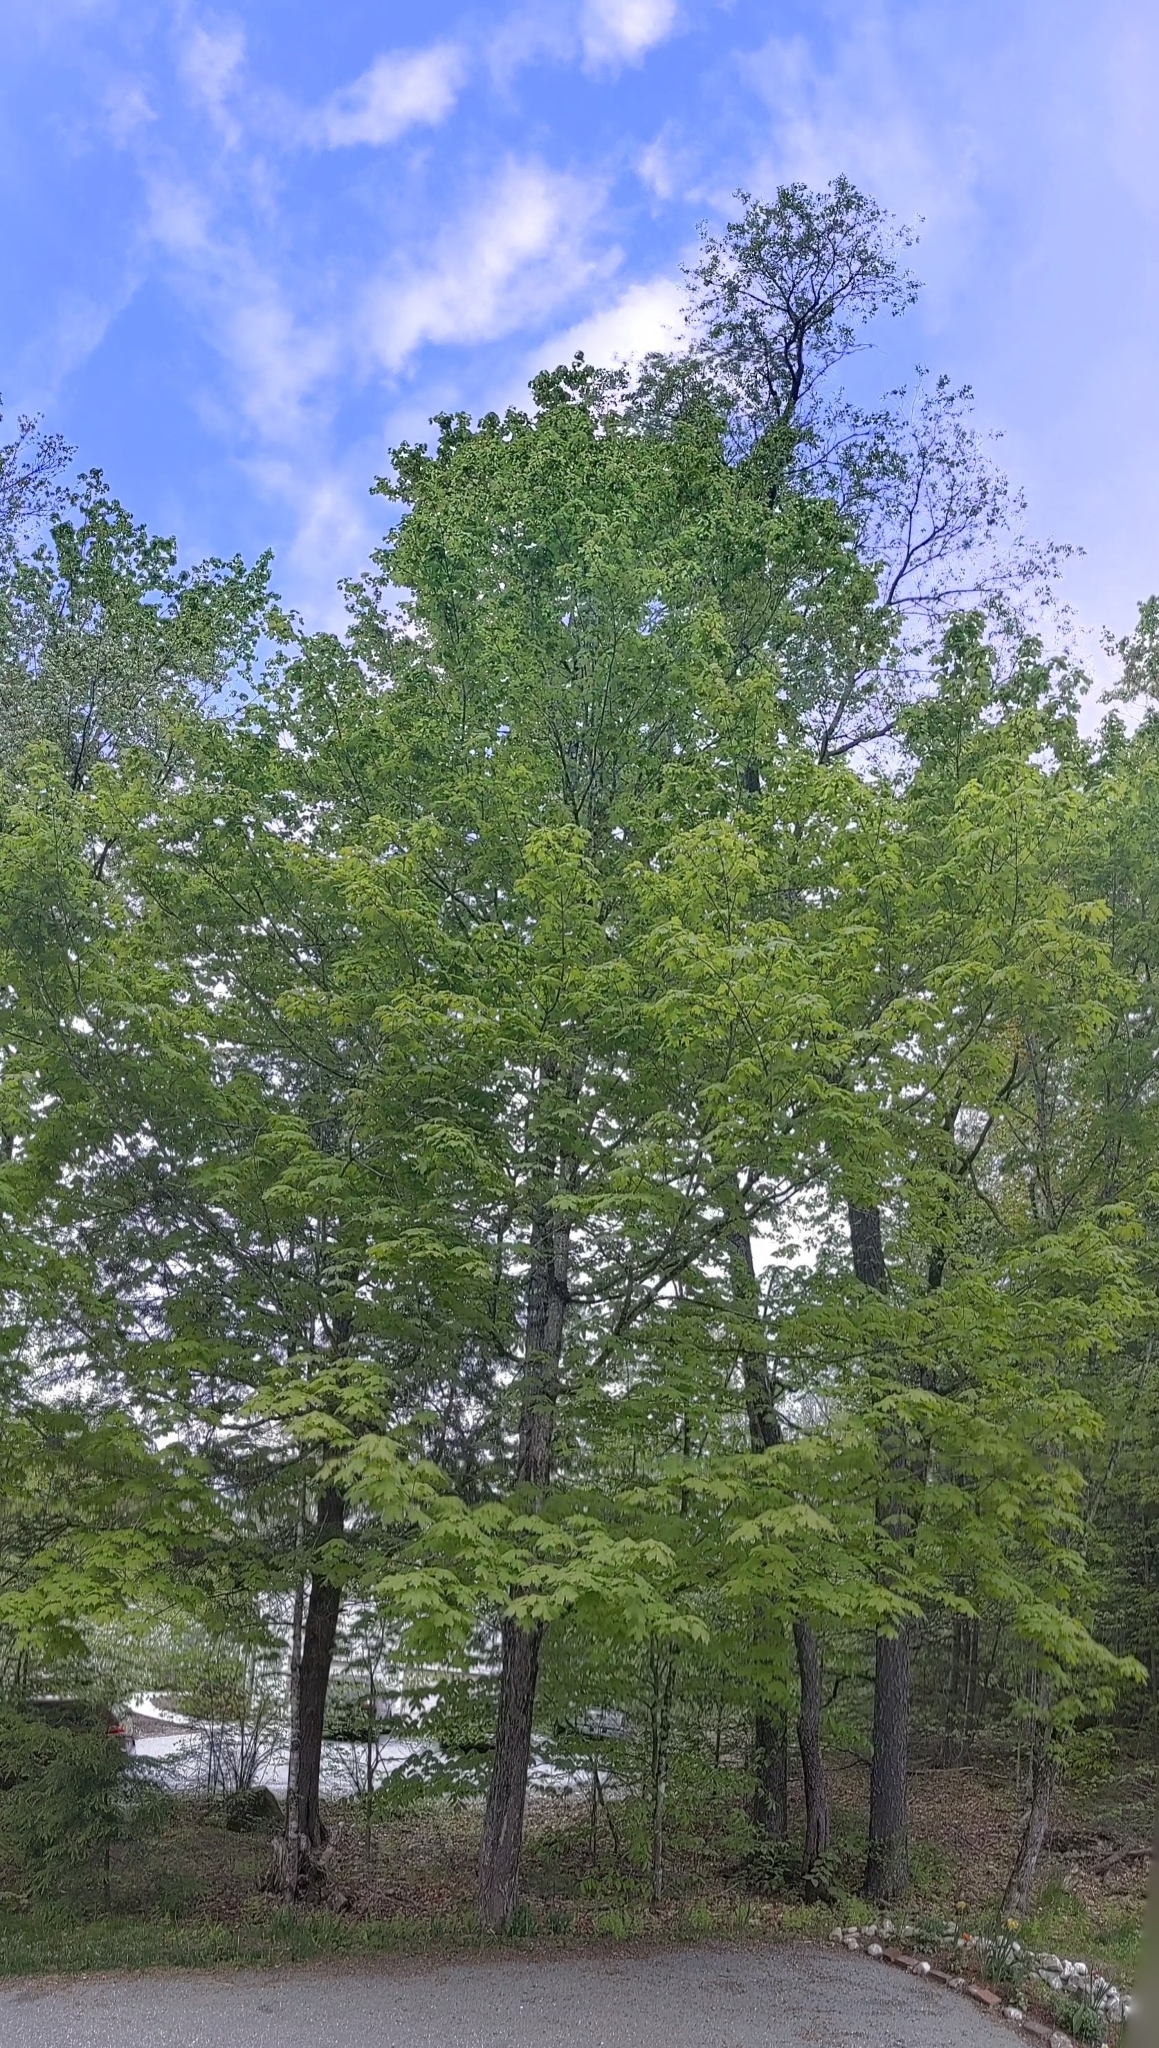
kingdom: Plantae
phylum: Tracheophyta
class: Magnoliopsida
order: Sapindales
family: Sapindaceae
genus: Acer
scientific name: Acer saccharum
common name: Sugar maple
